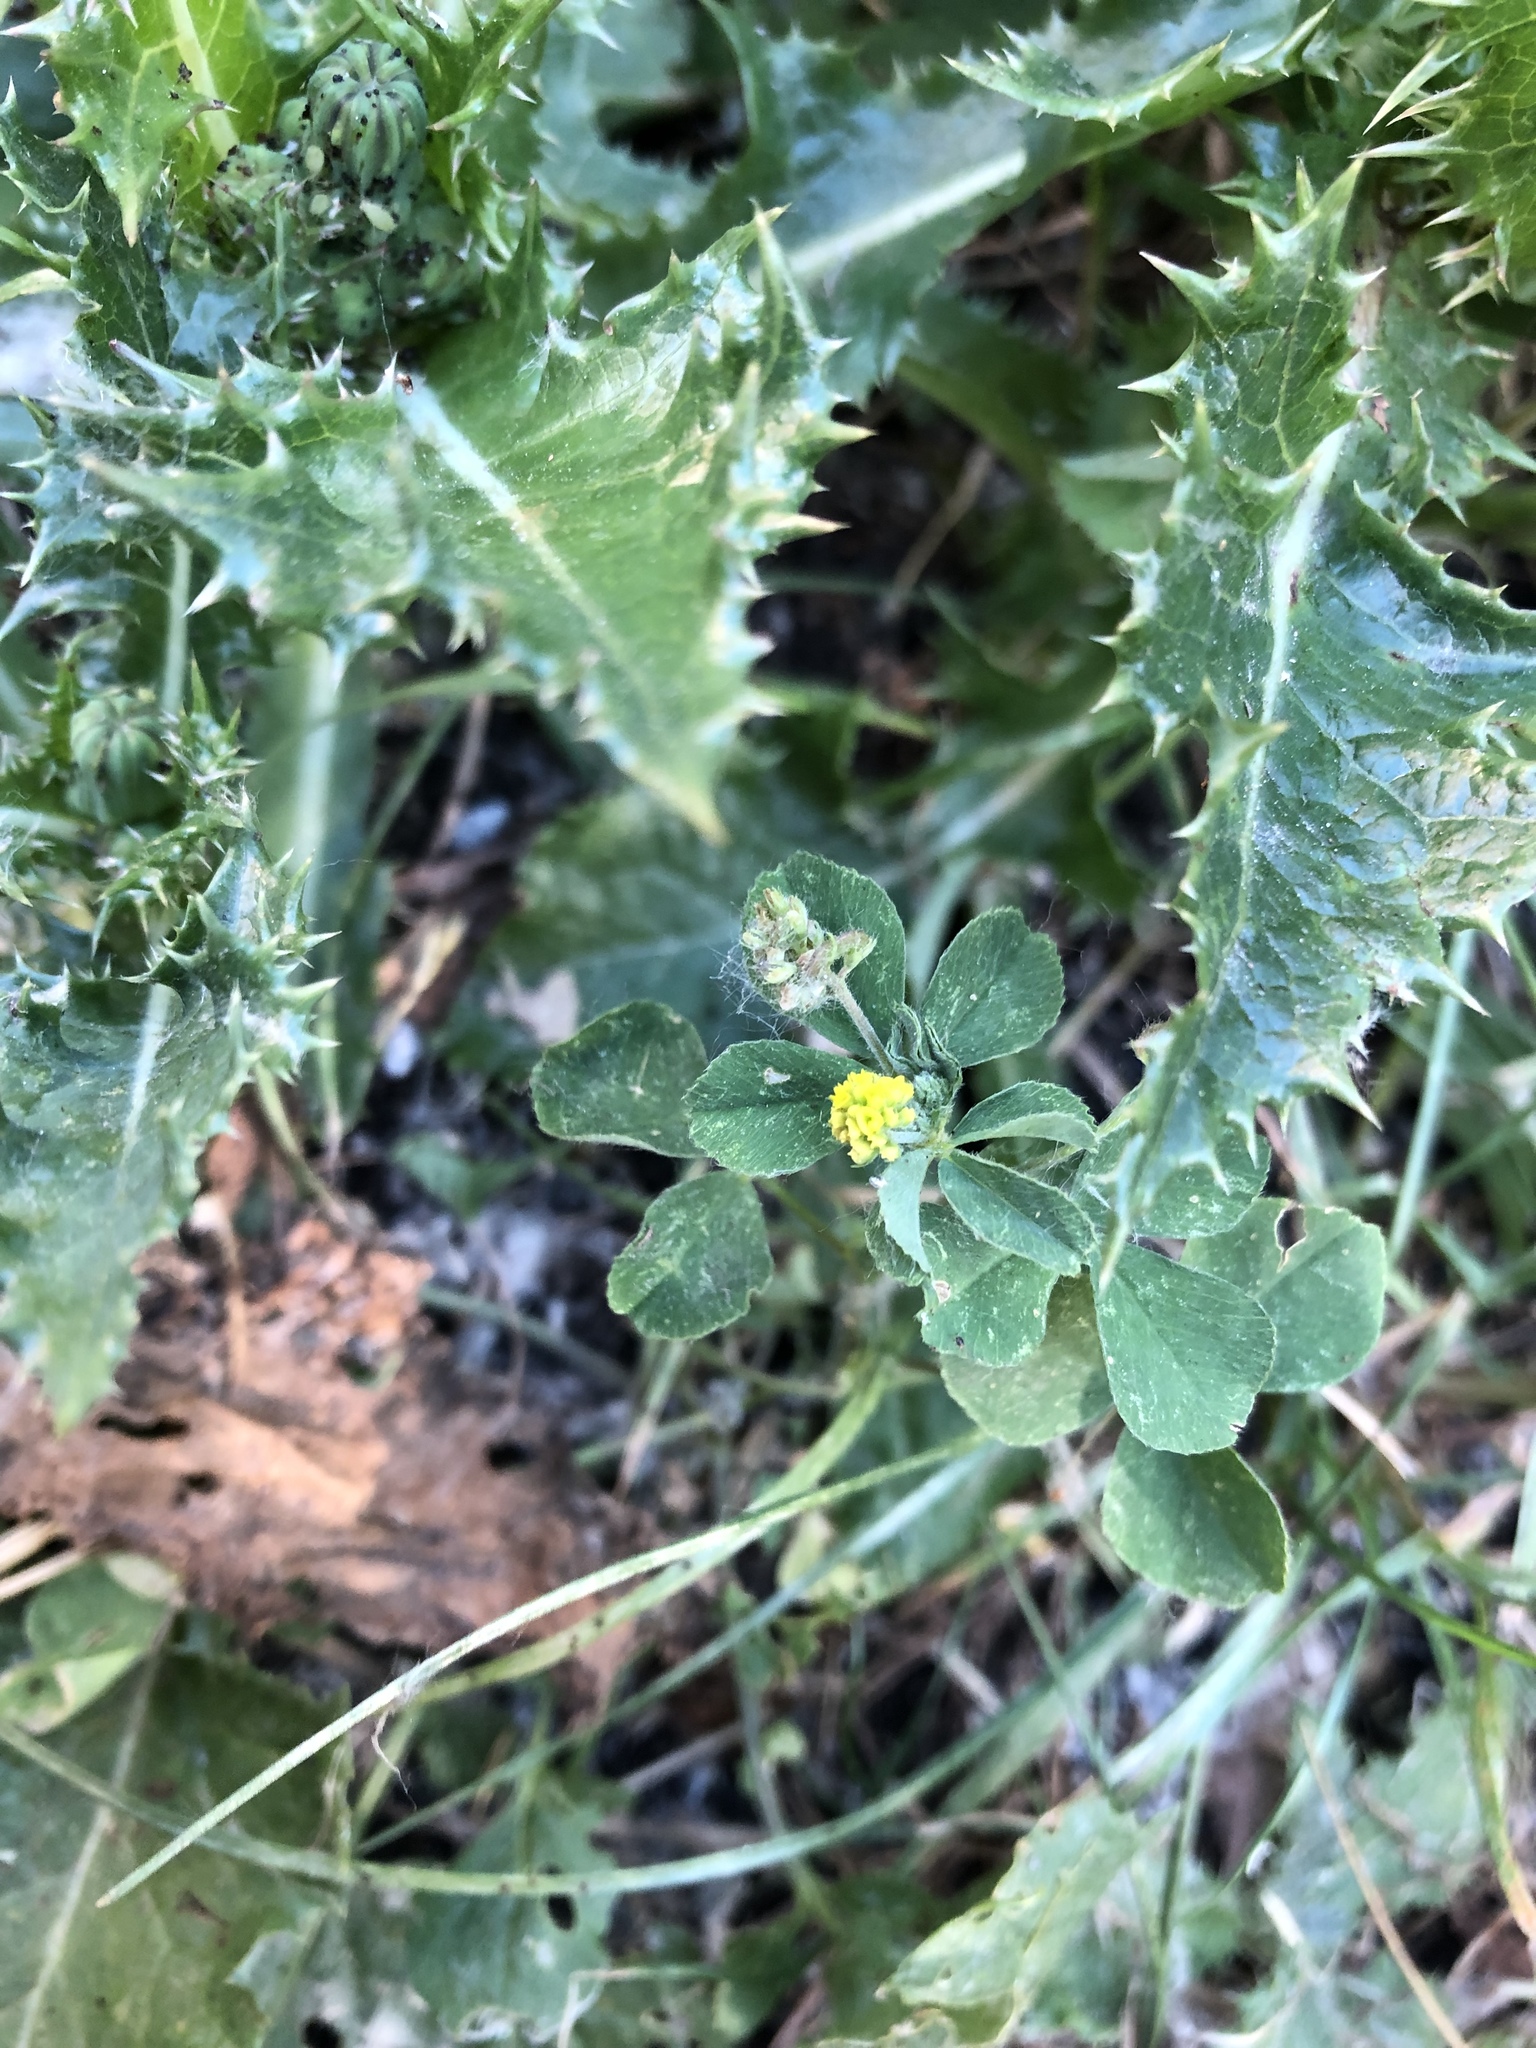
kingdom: Plantae
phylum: Tracheophyta
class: Magnoliopsida
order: Fabales
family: Fabaceae
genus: Medicago
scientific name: Medicago lupulina
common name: Black medick
